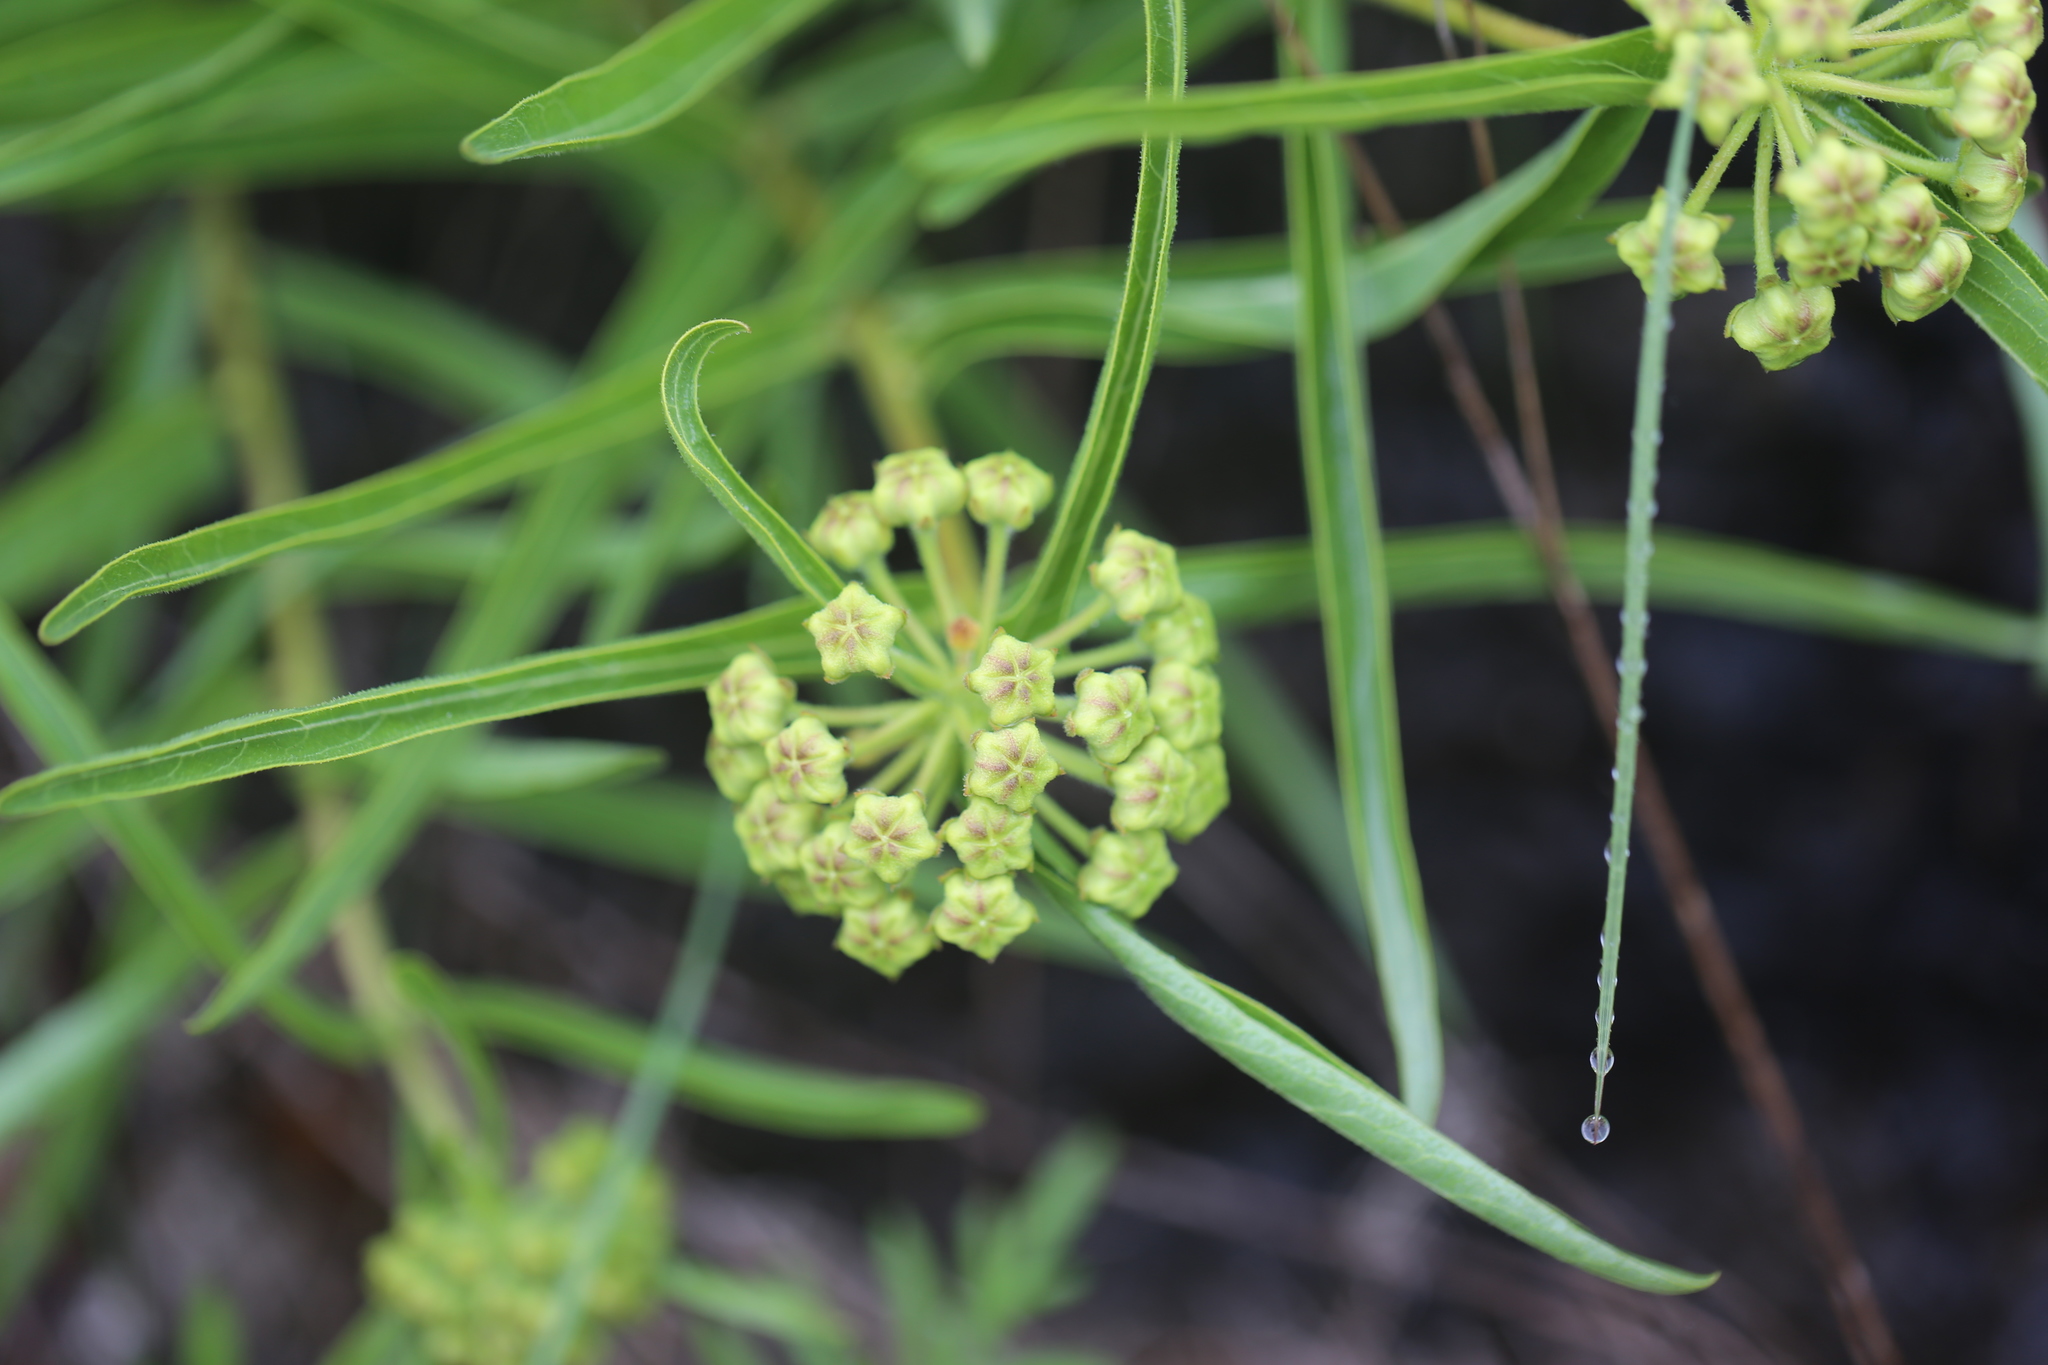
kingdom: Plantae
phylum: Tracheophyta
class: Magnoliopsida
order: Gentianales
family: Apocynaceae
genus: Asclepias
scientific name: Asclepias asperula
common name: Antelope horns
